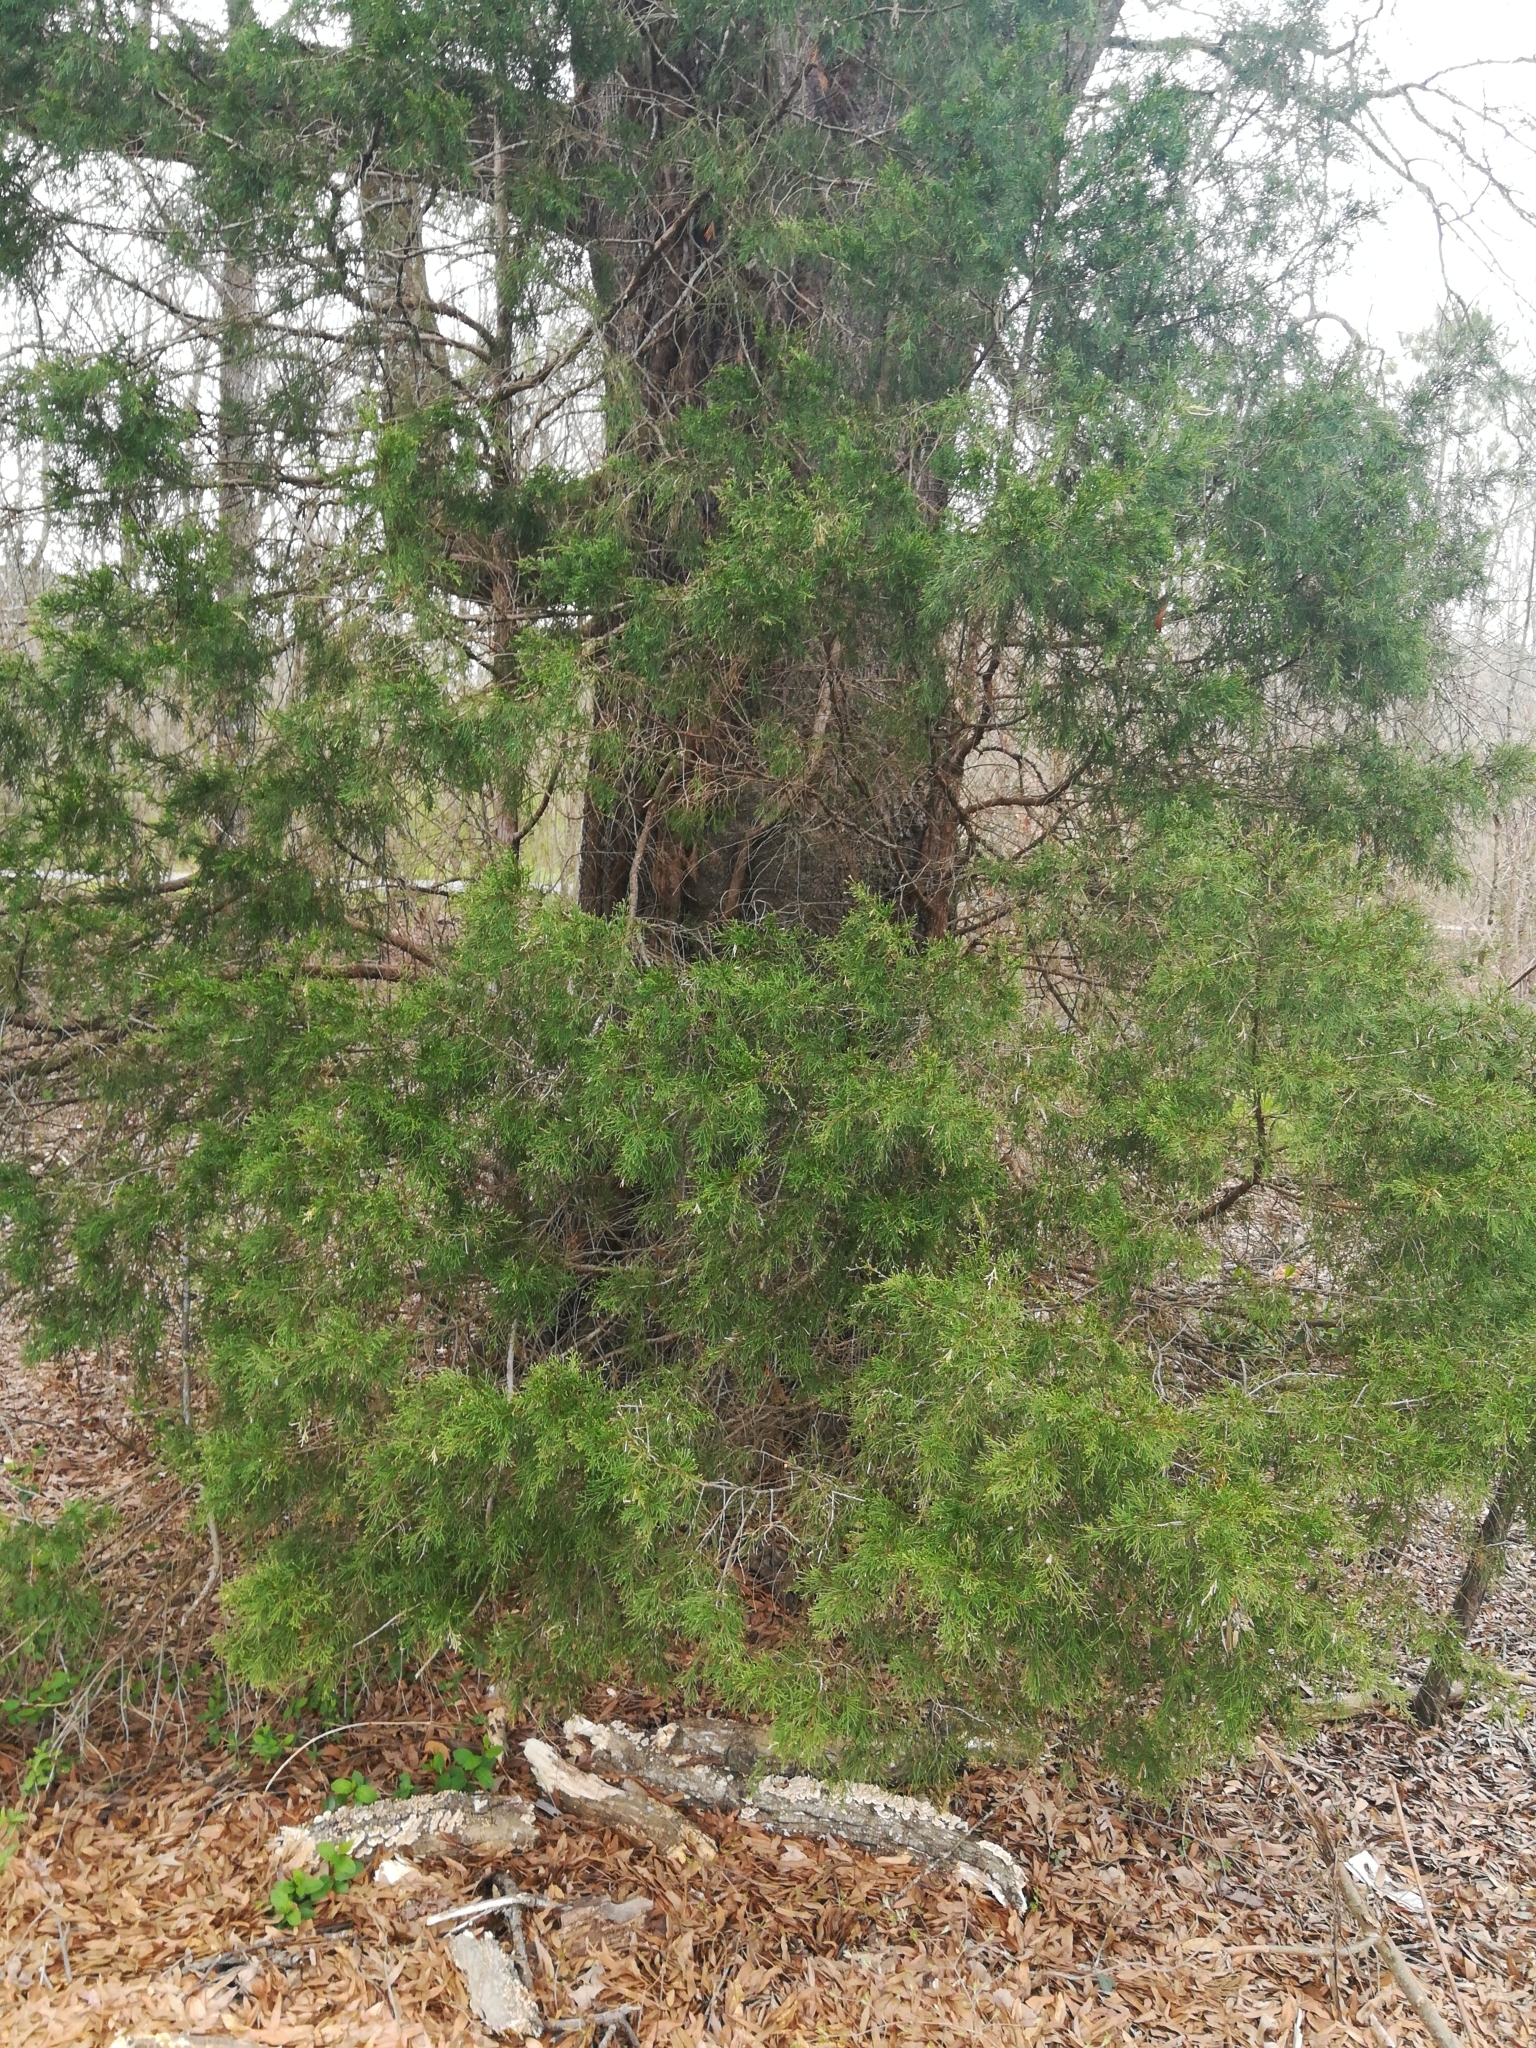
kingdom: Plantae
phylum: Tracheophyta
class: Pinopsida
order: Pinales
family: Cupressaceae
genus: Juniperus
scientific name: Juniperus virginiana
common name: Red juniper
